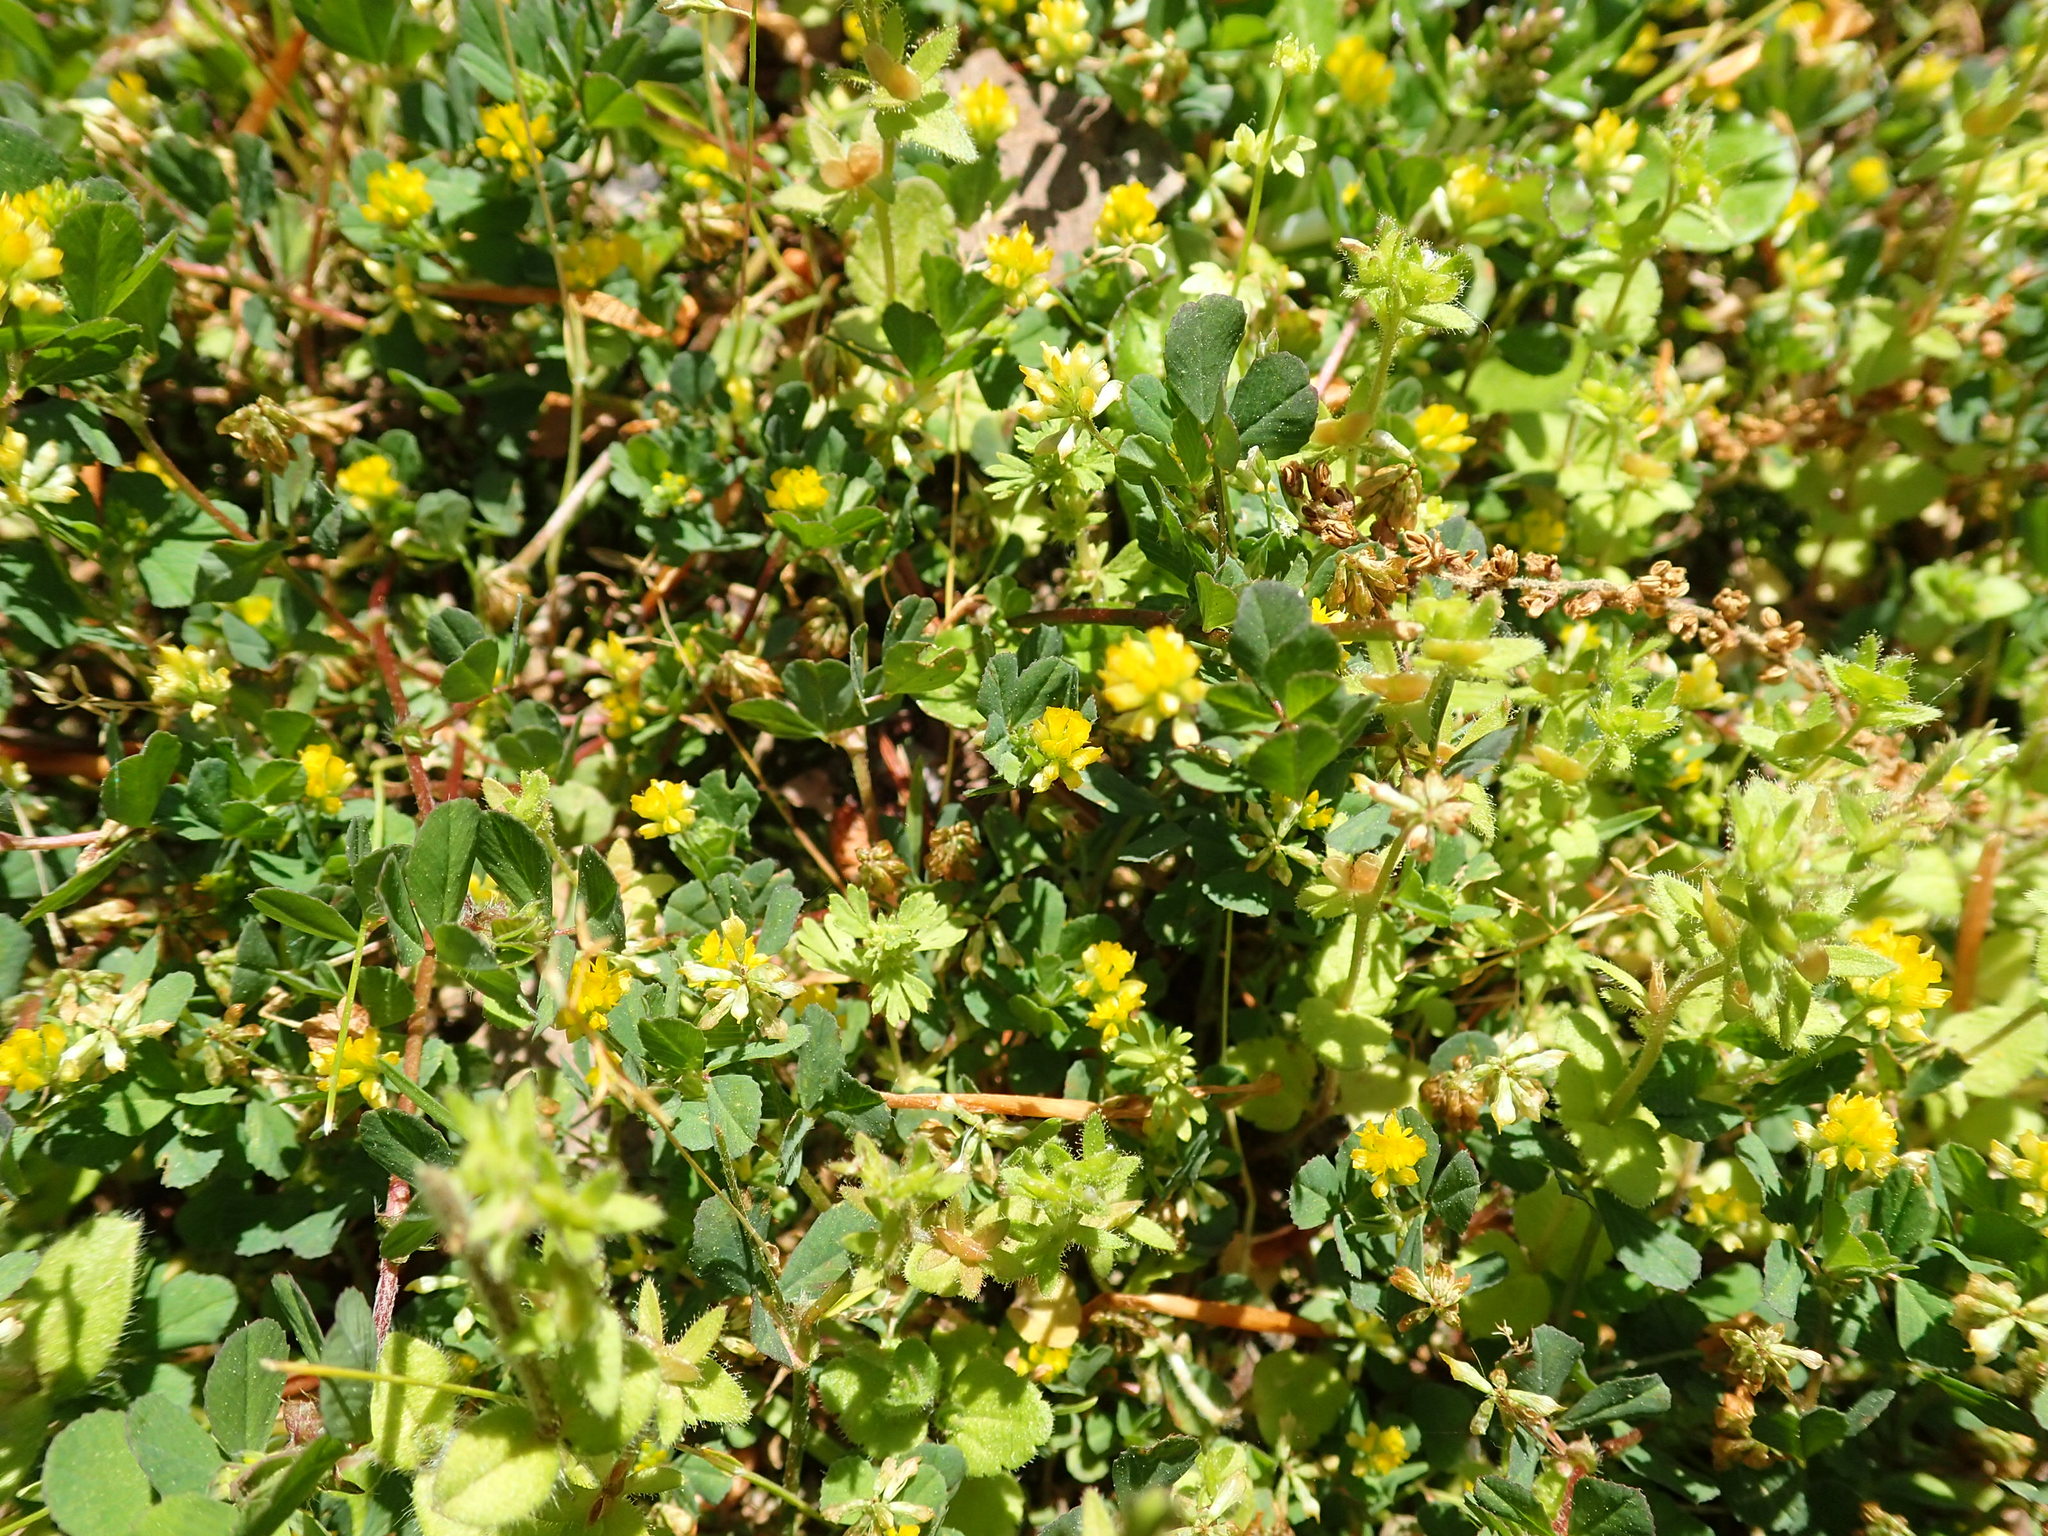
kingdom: Plantae
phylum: Tracheophyta
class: Magnoliopsida
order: Fabales
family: Fabaceae
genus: Trifolium
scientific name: Trifolium dubium
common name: Suckling clover
